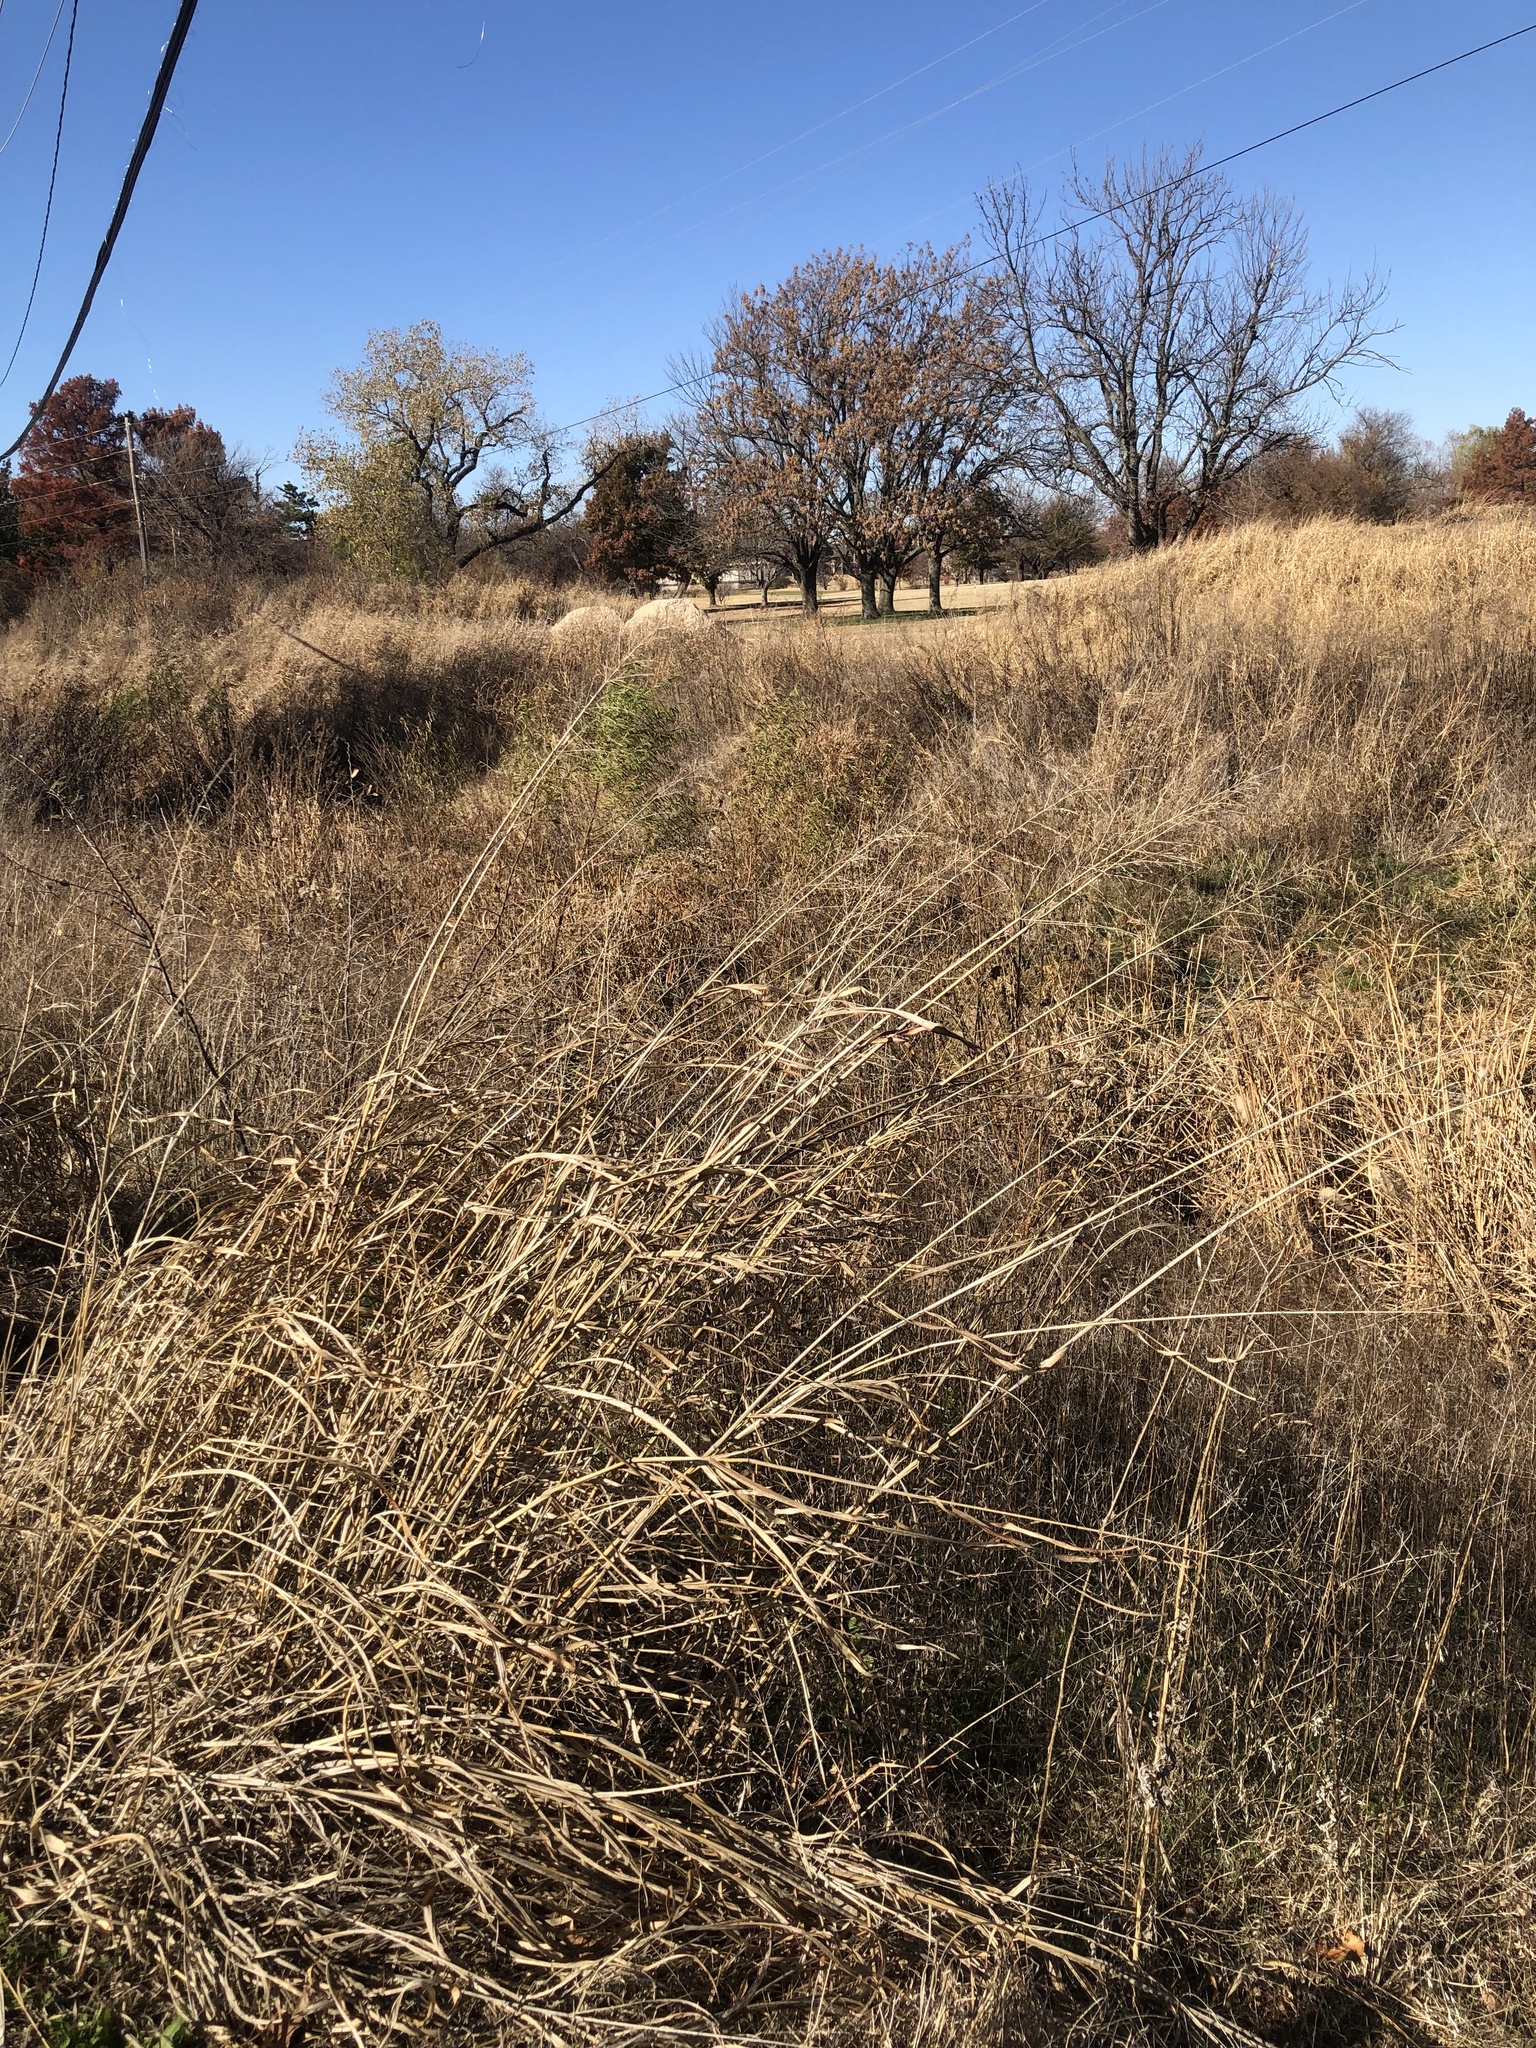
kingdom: Plantae
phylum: Tracheophyta
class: Liliopsida
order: Poales
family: Poaceae
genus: Sorghum
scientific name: Sorghum halepense
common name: Johnson-grass
